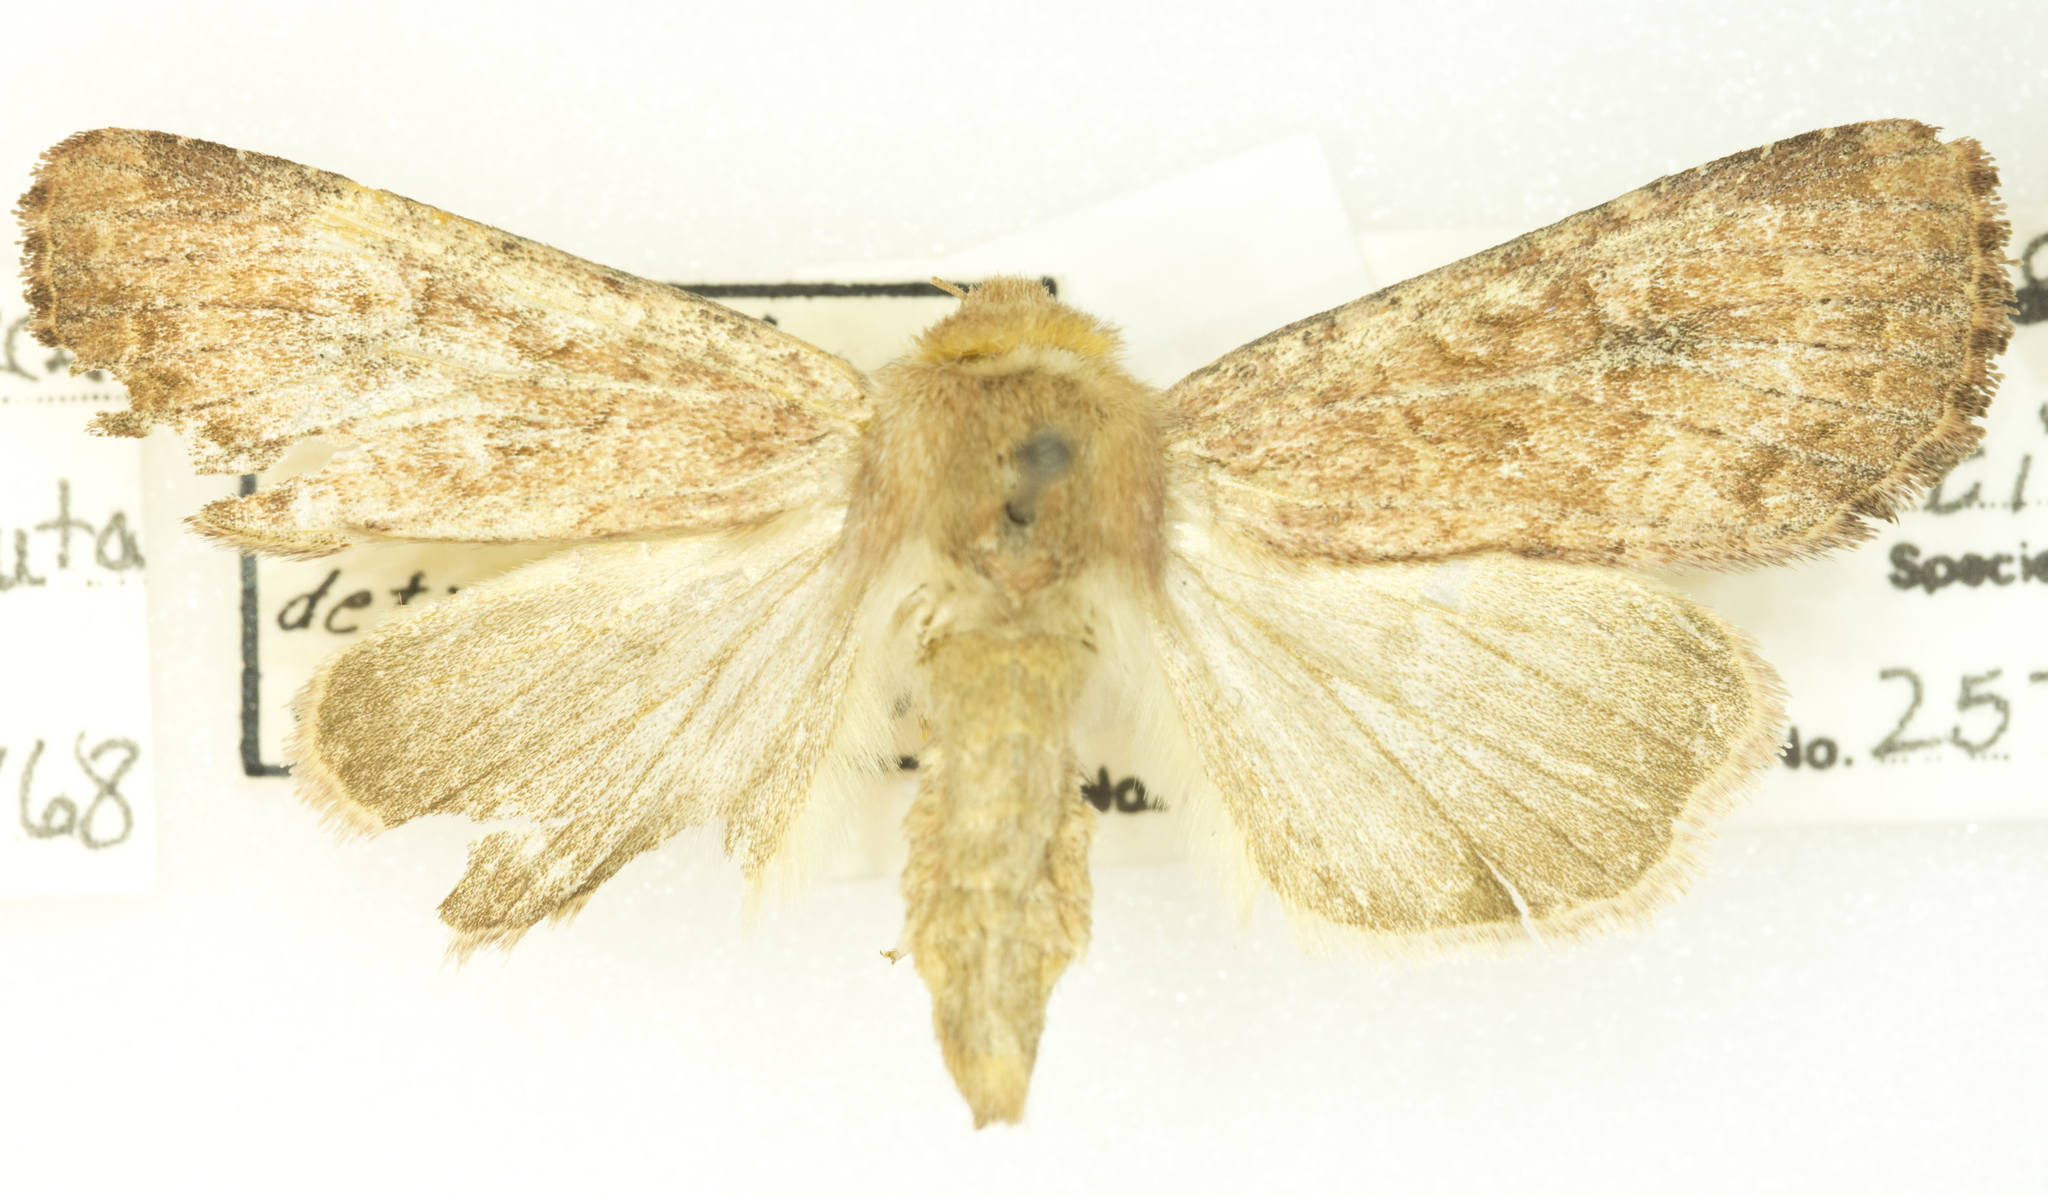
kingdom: Animalia
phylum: Arthropoda
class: Insecta
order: Lepidoptera
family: Noctuidae
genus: Apamea
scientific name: Apamea inficita
